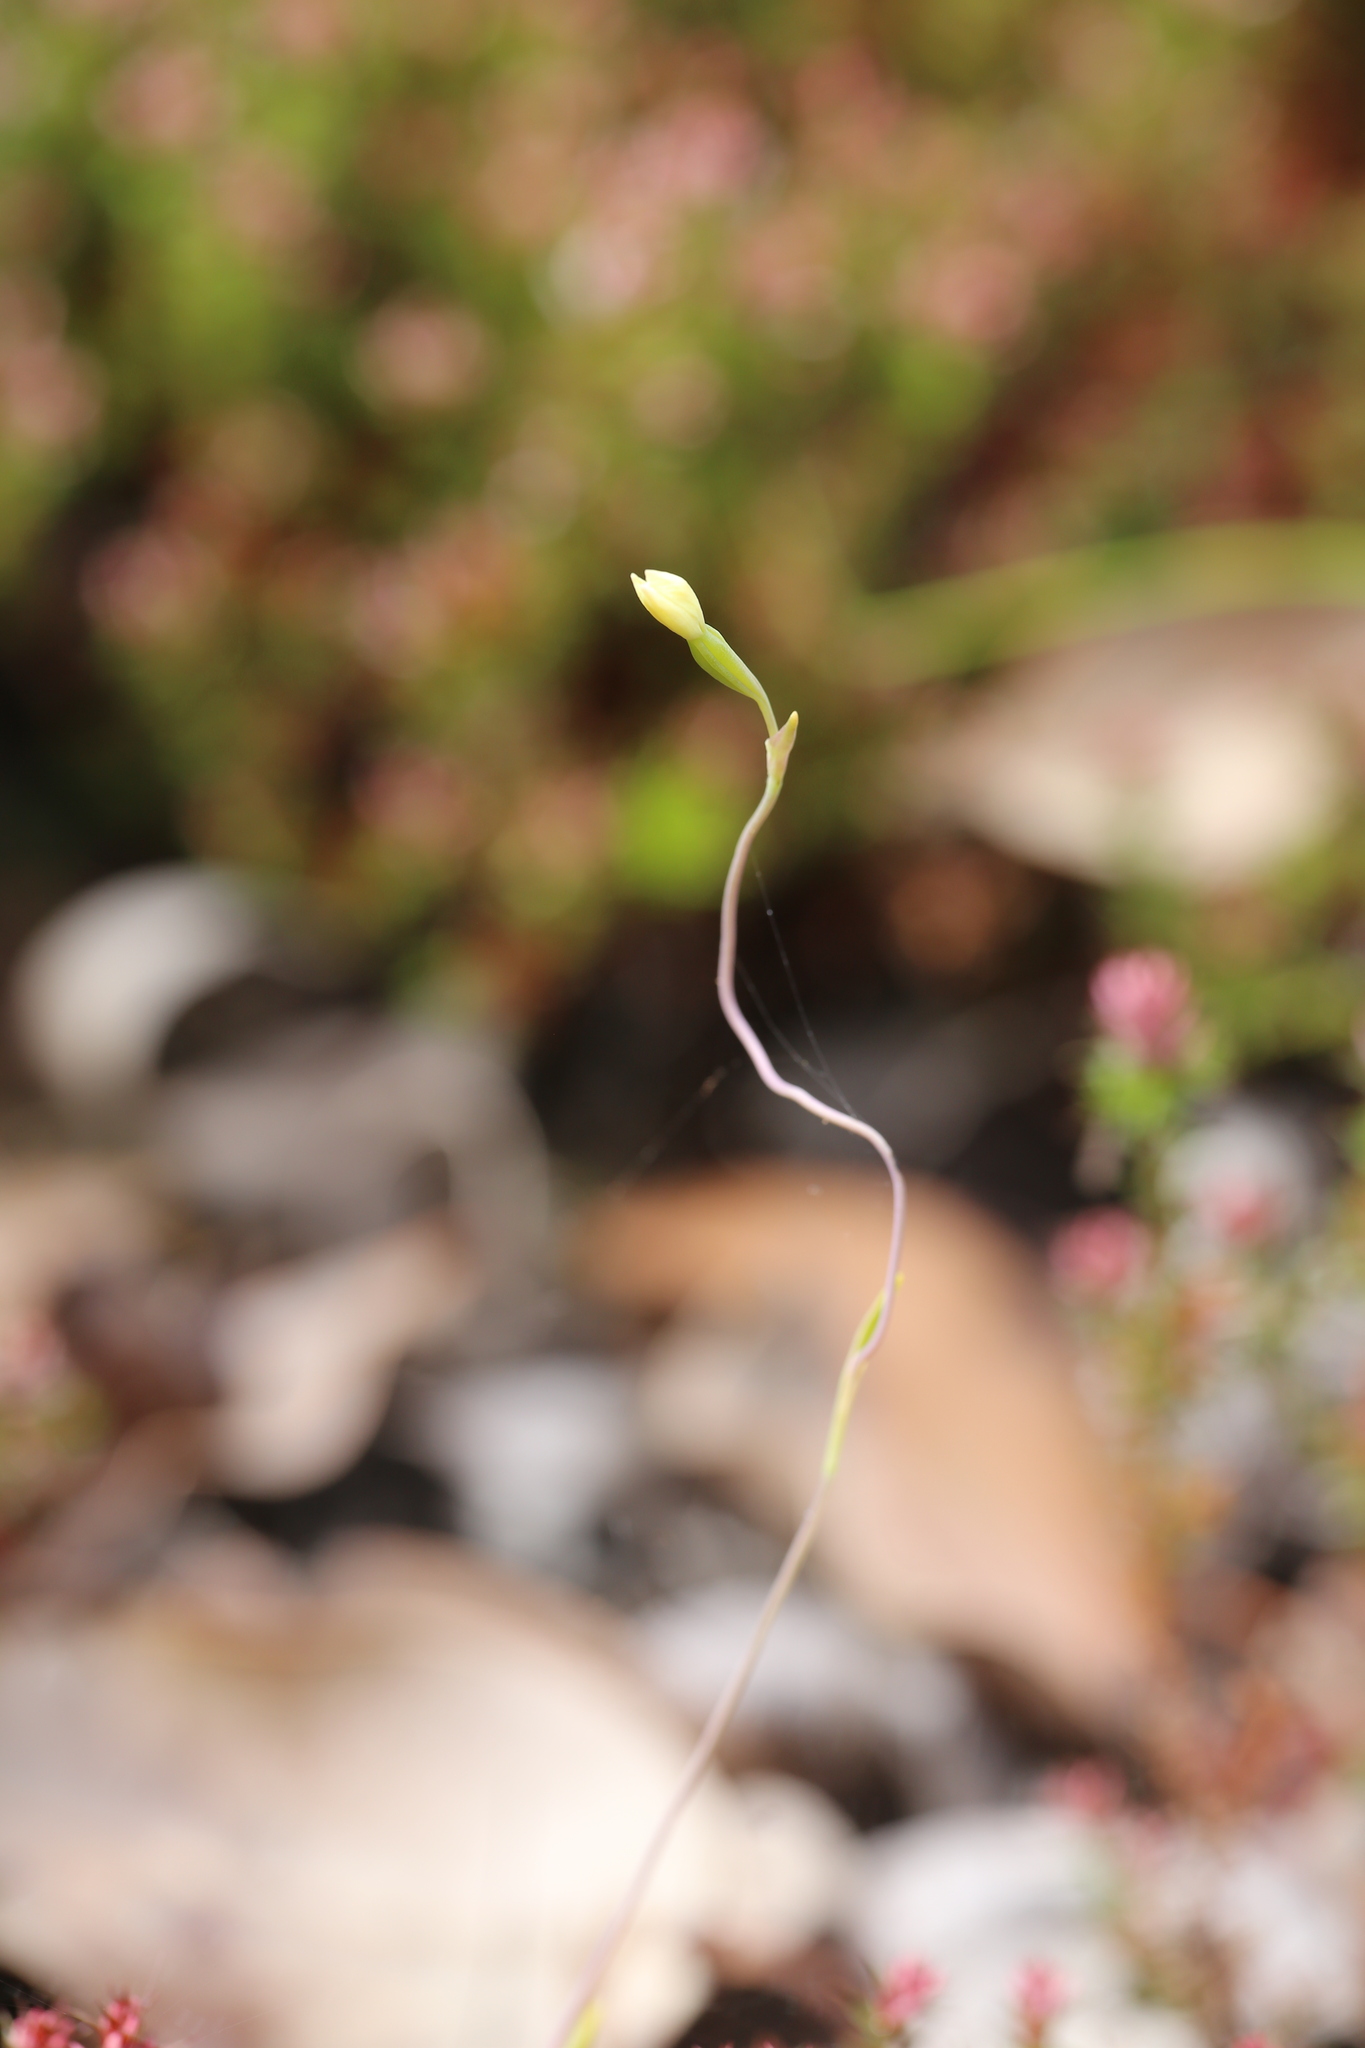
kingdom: Plantae
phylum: Tracheophyta
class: Liliopsida
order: Asparagales
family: Orchidaceae
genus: Thelymitra
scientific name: Thelymitra flexuosa
